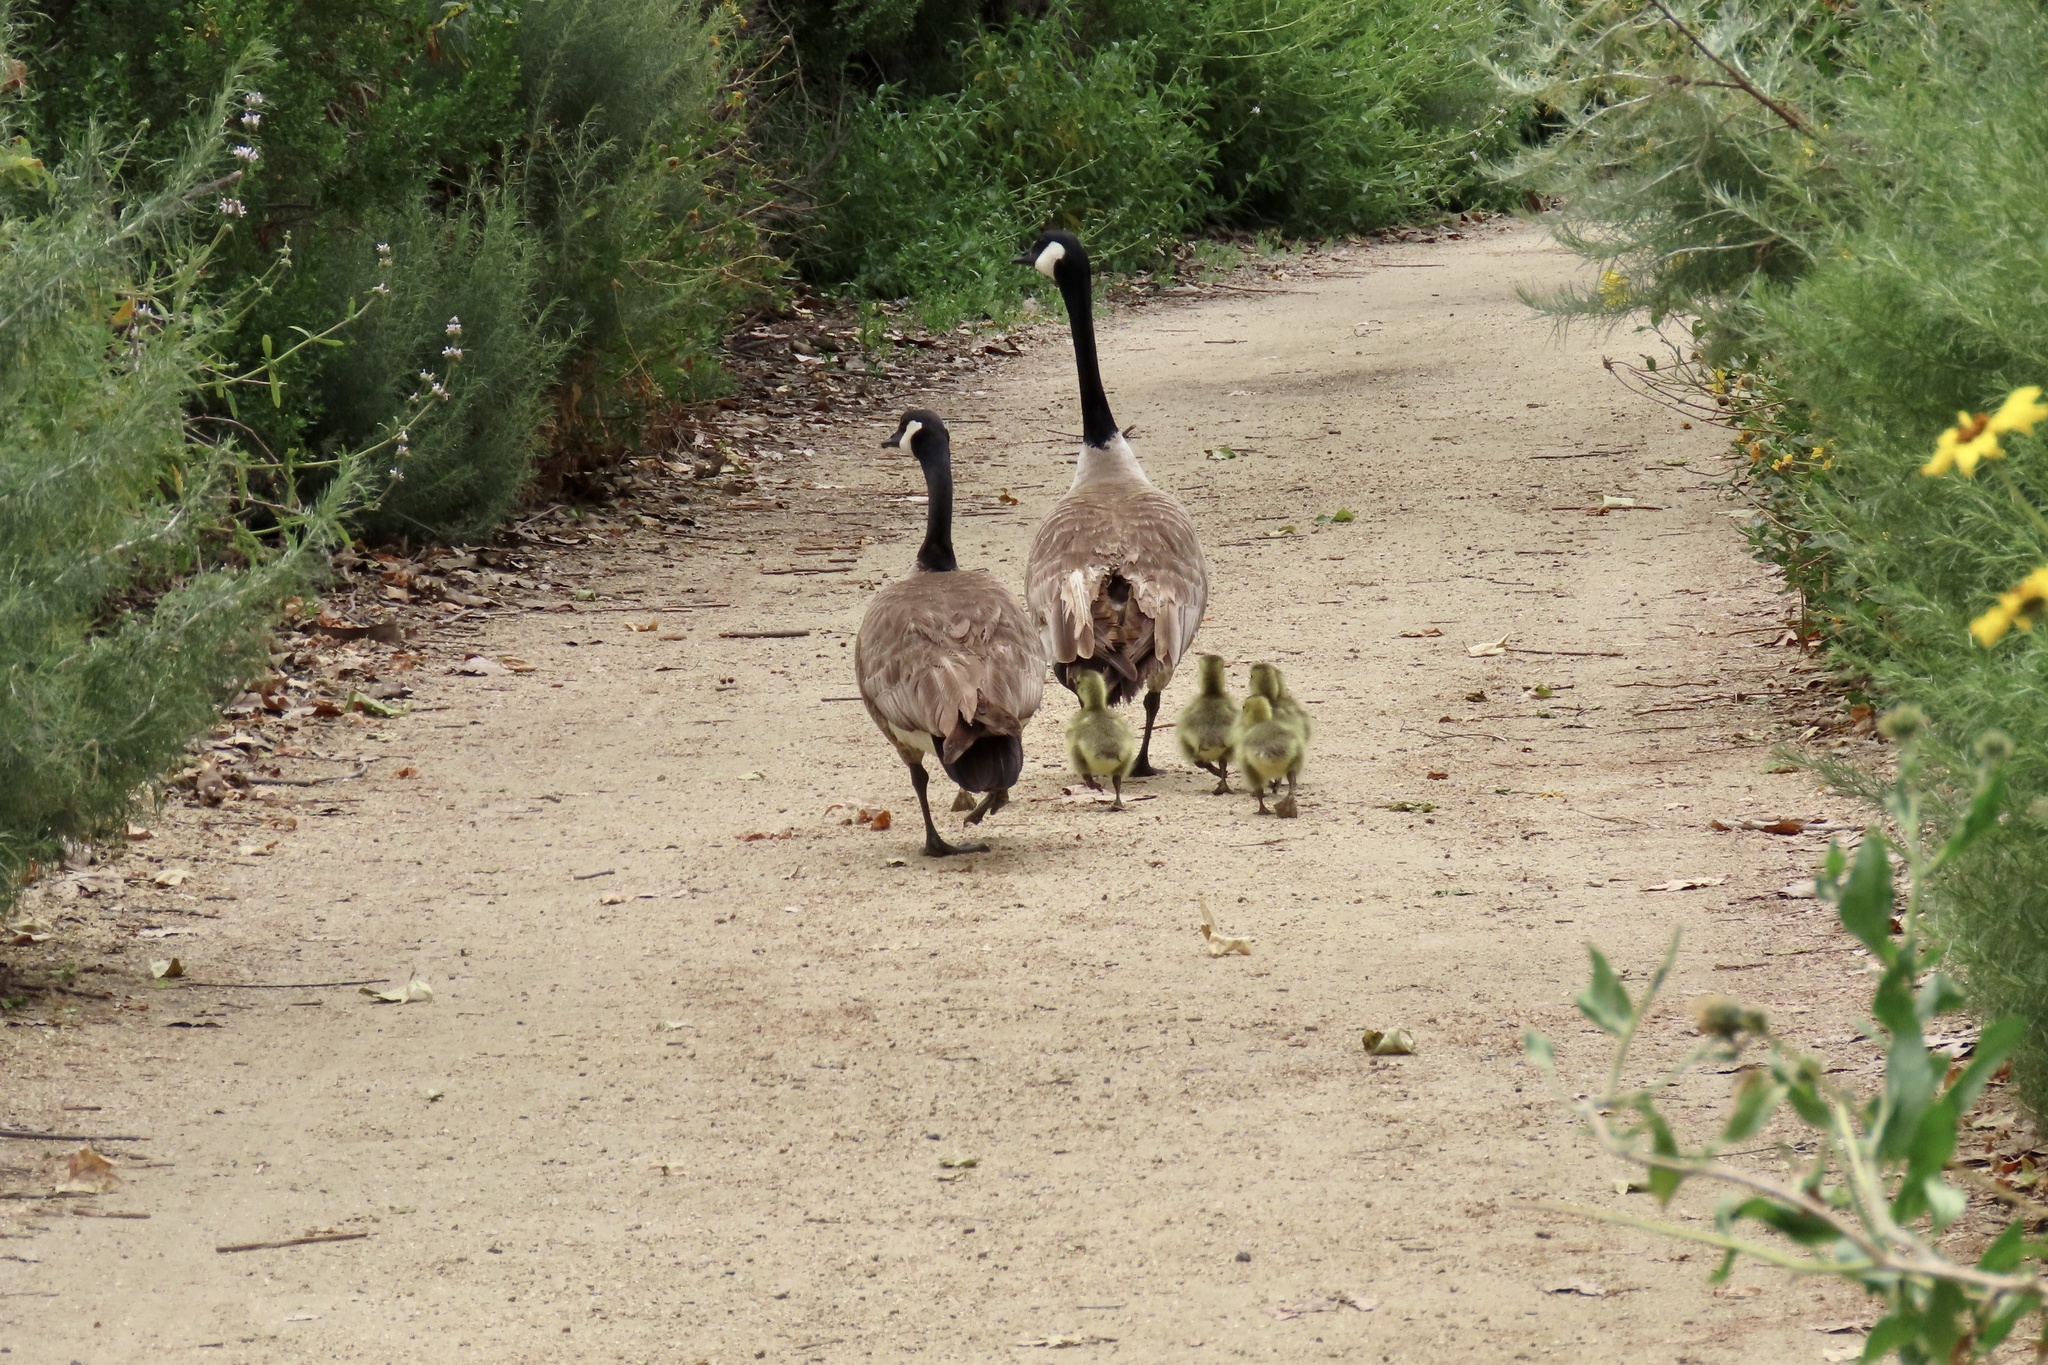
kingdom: Animalia
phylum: Chordata
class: Aves
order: Anseriformes
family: Anatidae
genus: Branta
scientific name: Branta canadensis
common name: Canada goose
